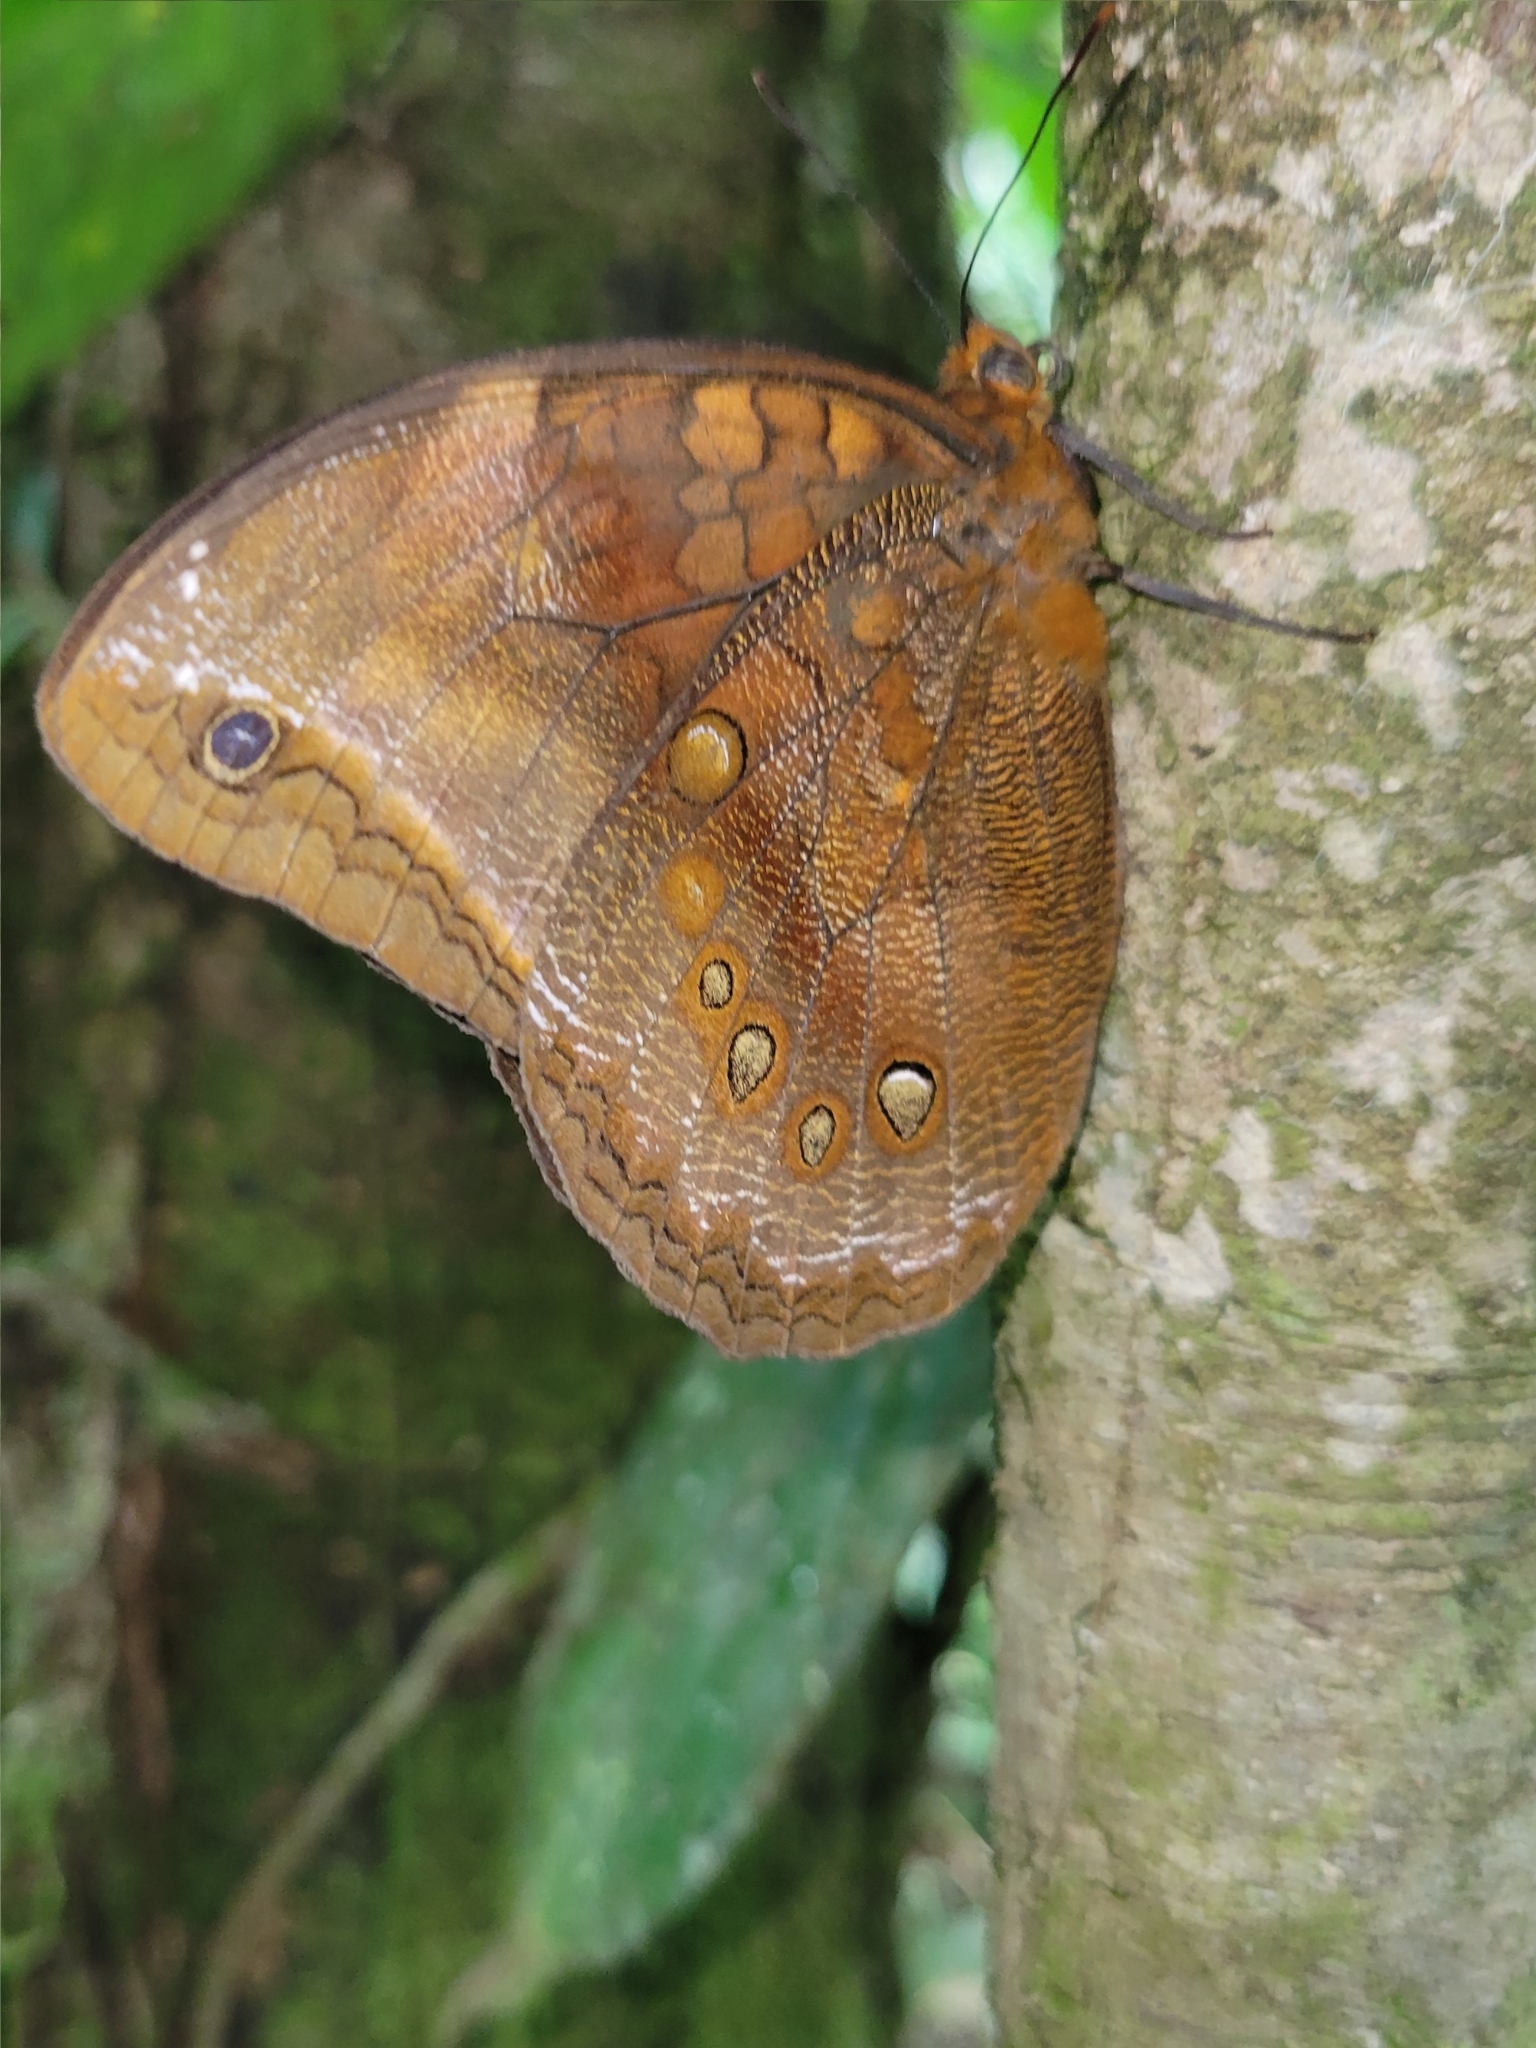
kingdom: Animalia
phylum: Arthropoda
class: Insecta
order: Lepidoptera
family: Nymphalidae
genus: Catoblepia
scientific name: Catoblepia berecynthia
